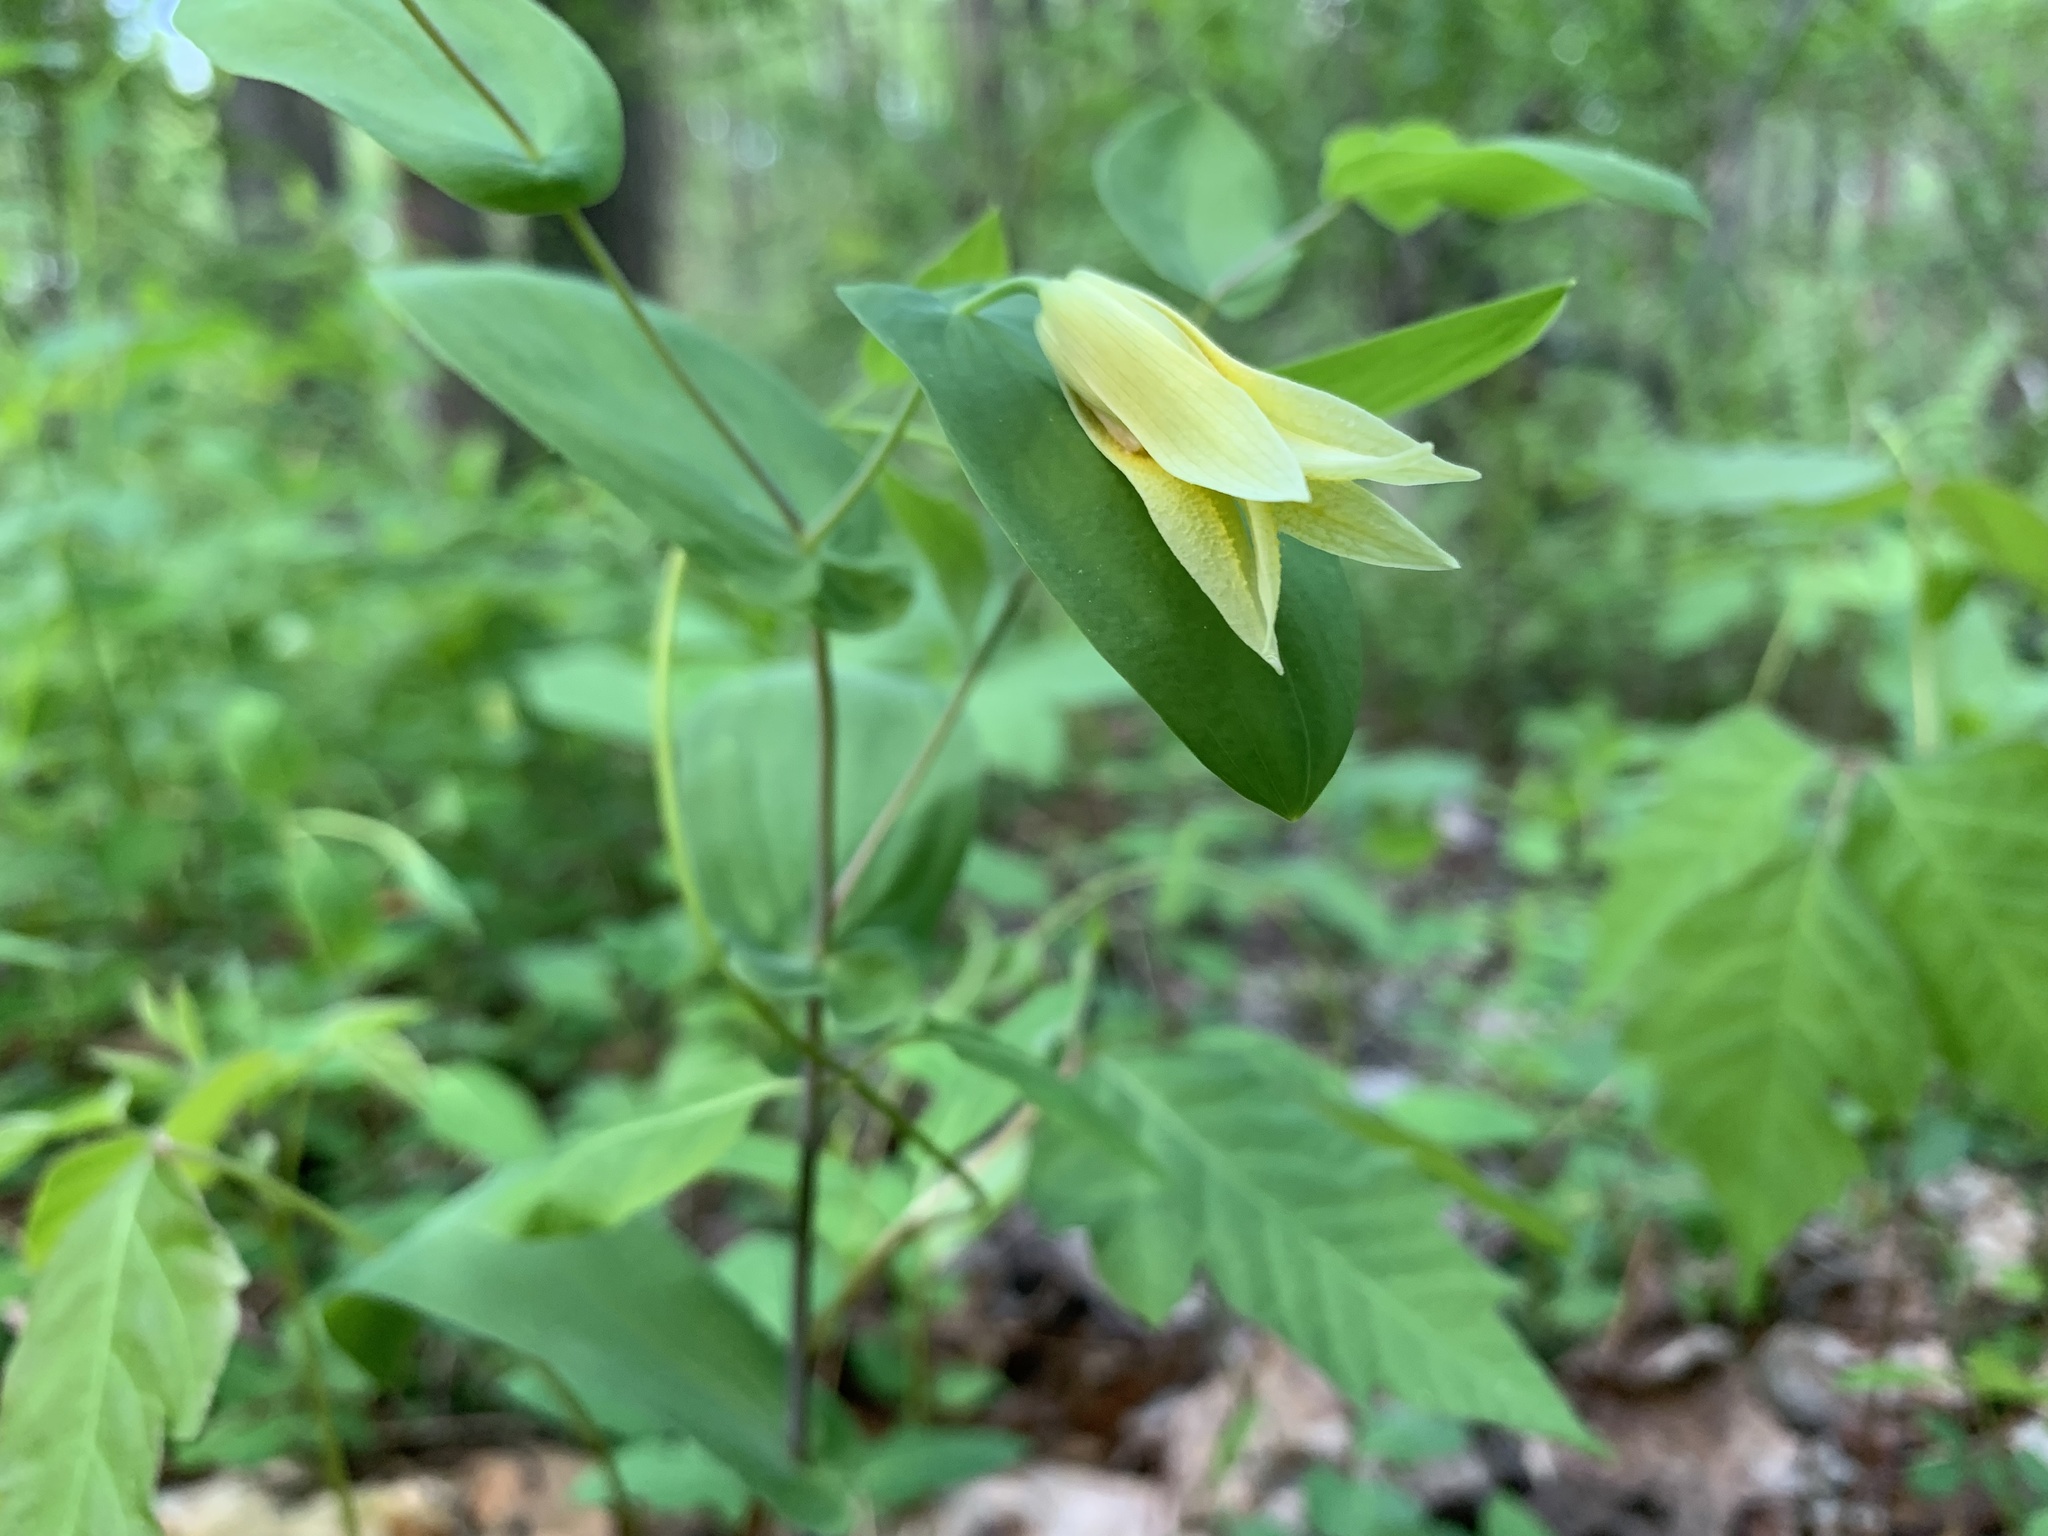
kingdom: Plantae
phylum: Tracheophyta
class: Liliopsida
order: Liliales
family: Colchicaceae
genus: Uvularia
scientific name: Uvularia perfoliata
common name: Perfoliate bellwort
